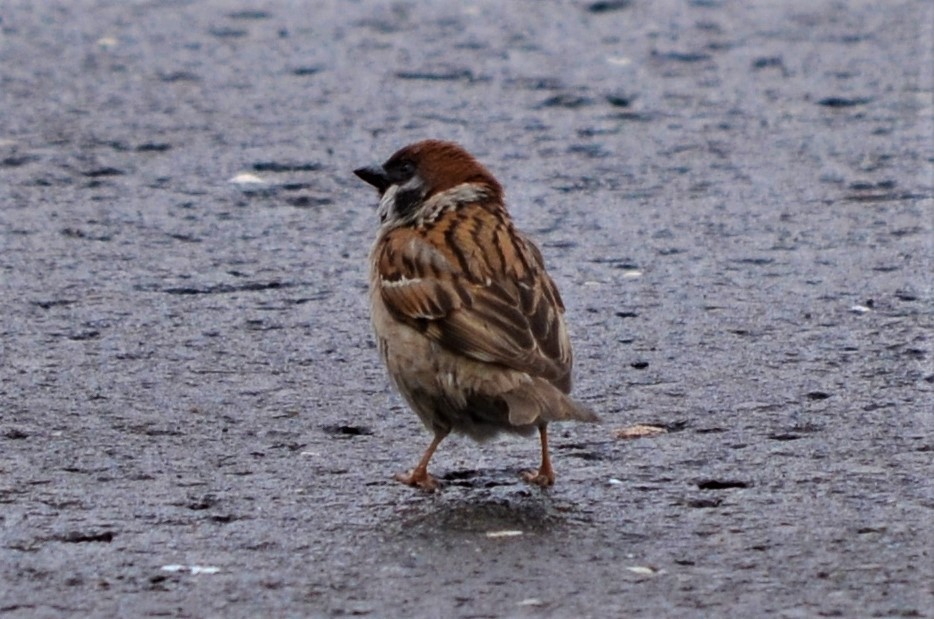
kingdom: Animalia
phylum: Chordata
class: Aves
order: Passeriformes
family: Passeridae
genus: Passer
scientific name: Passer montanus
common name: Eurasian tree sparrow
